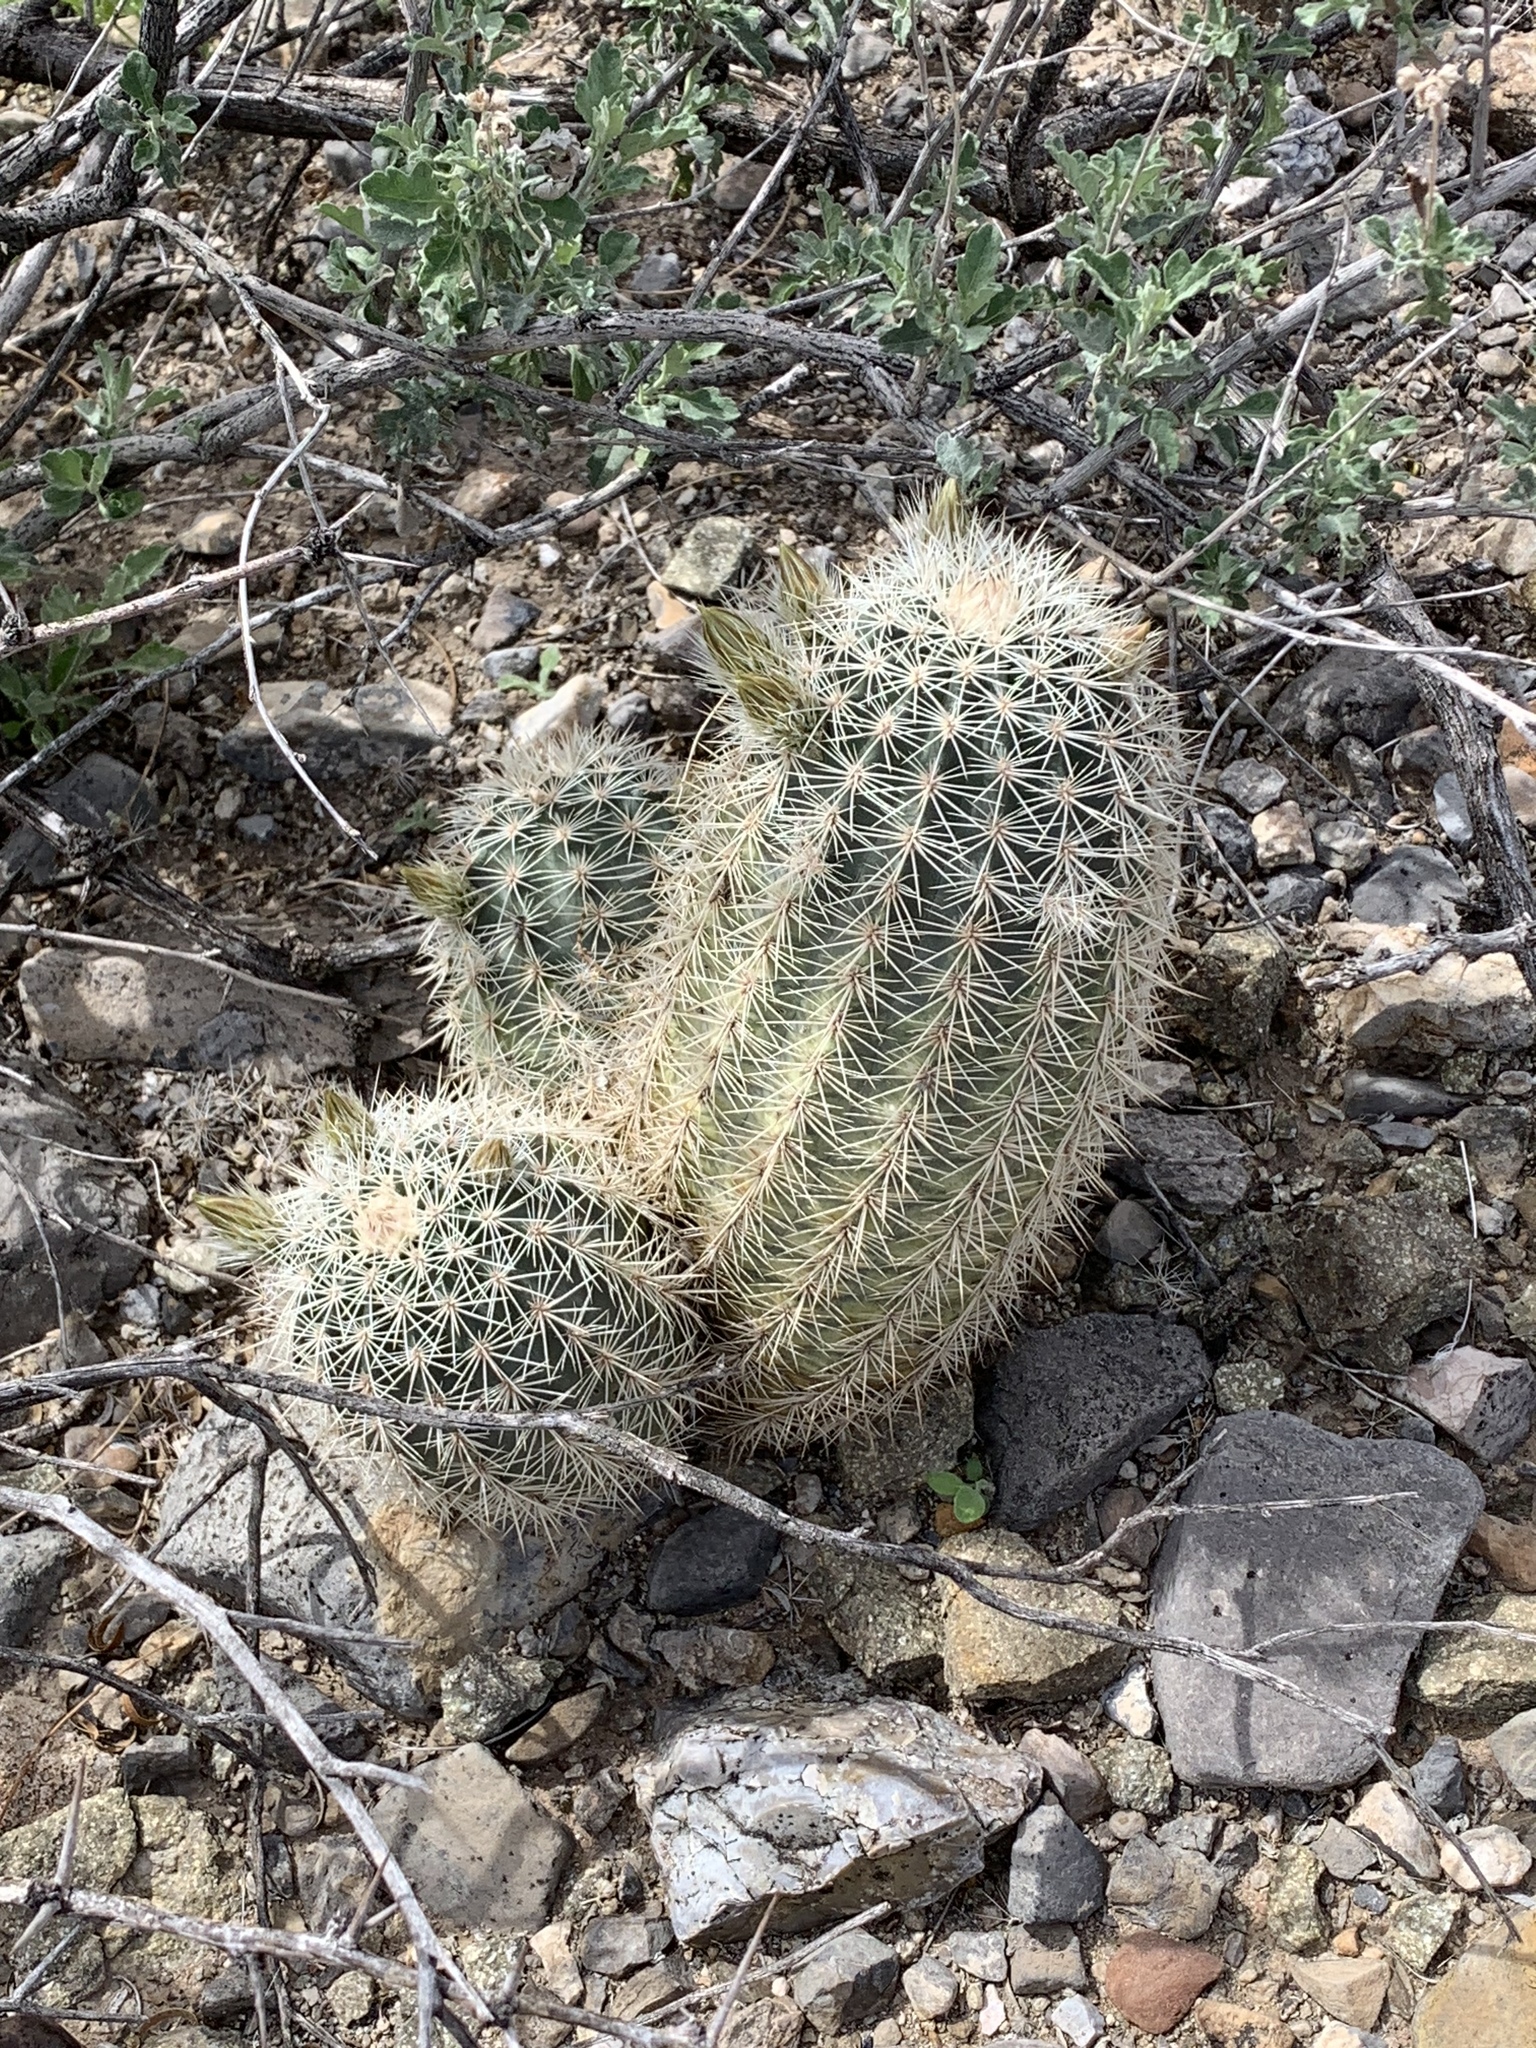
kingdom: Plantae
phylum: Tracheophyta
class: Magnoliopsida
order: Caryophyllales
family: Cactaceae
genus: Echinocereus
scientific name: Echinocereus dasyacanthus
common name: Spiny hedgehog cactus
